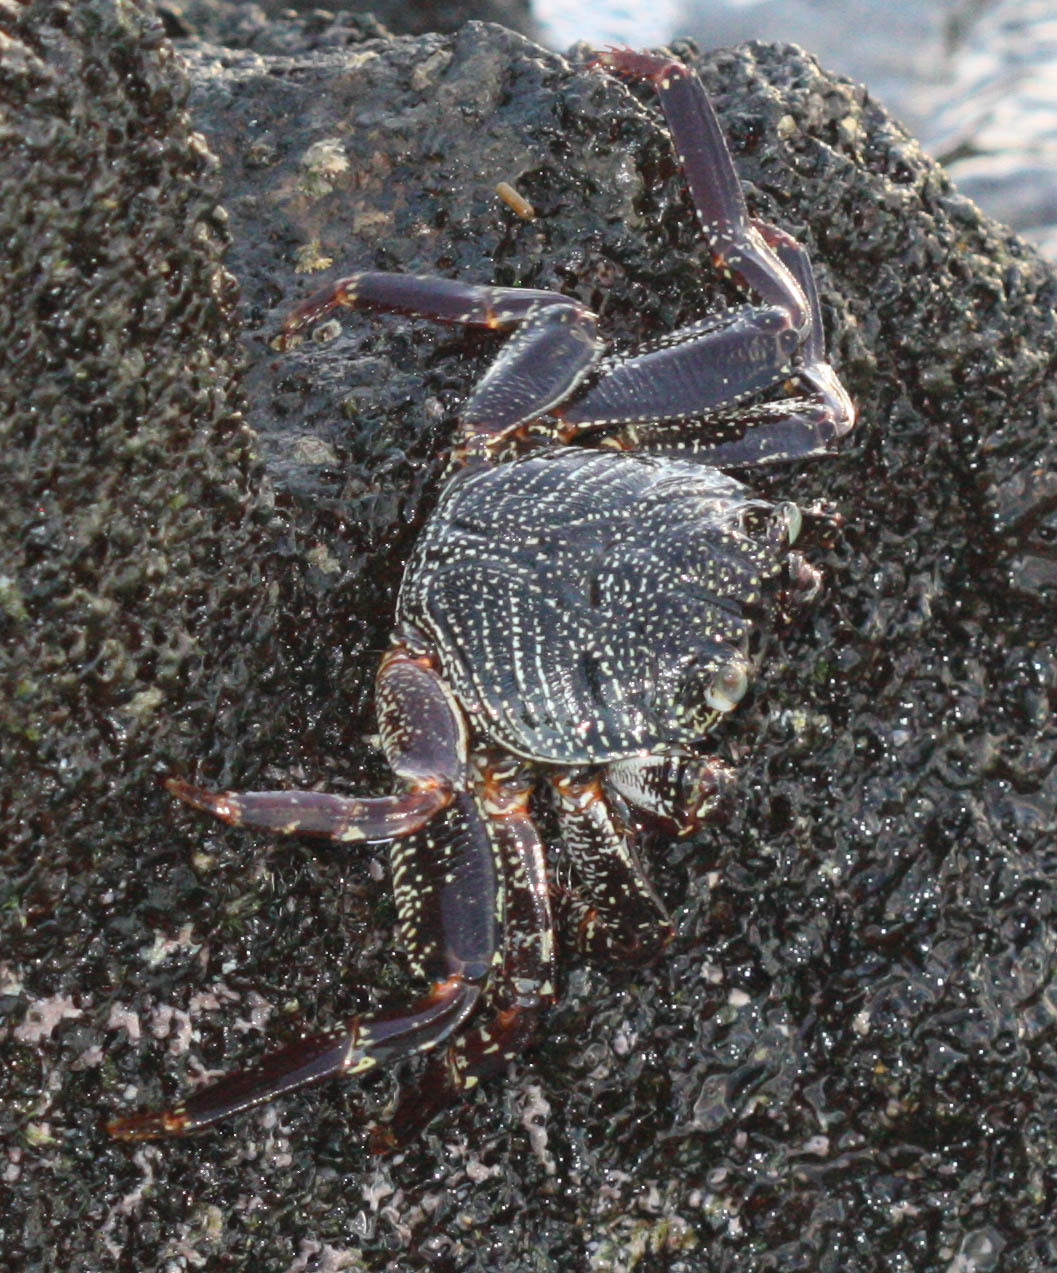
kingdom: Animalia
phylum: Arthropoda
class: Malacostraca
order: Decapoda
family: Grapsidae
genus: Grapsus
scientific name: Grapsus tenuicrustatus
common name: Natal lightfoot crab
